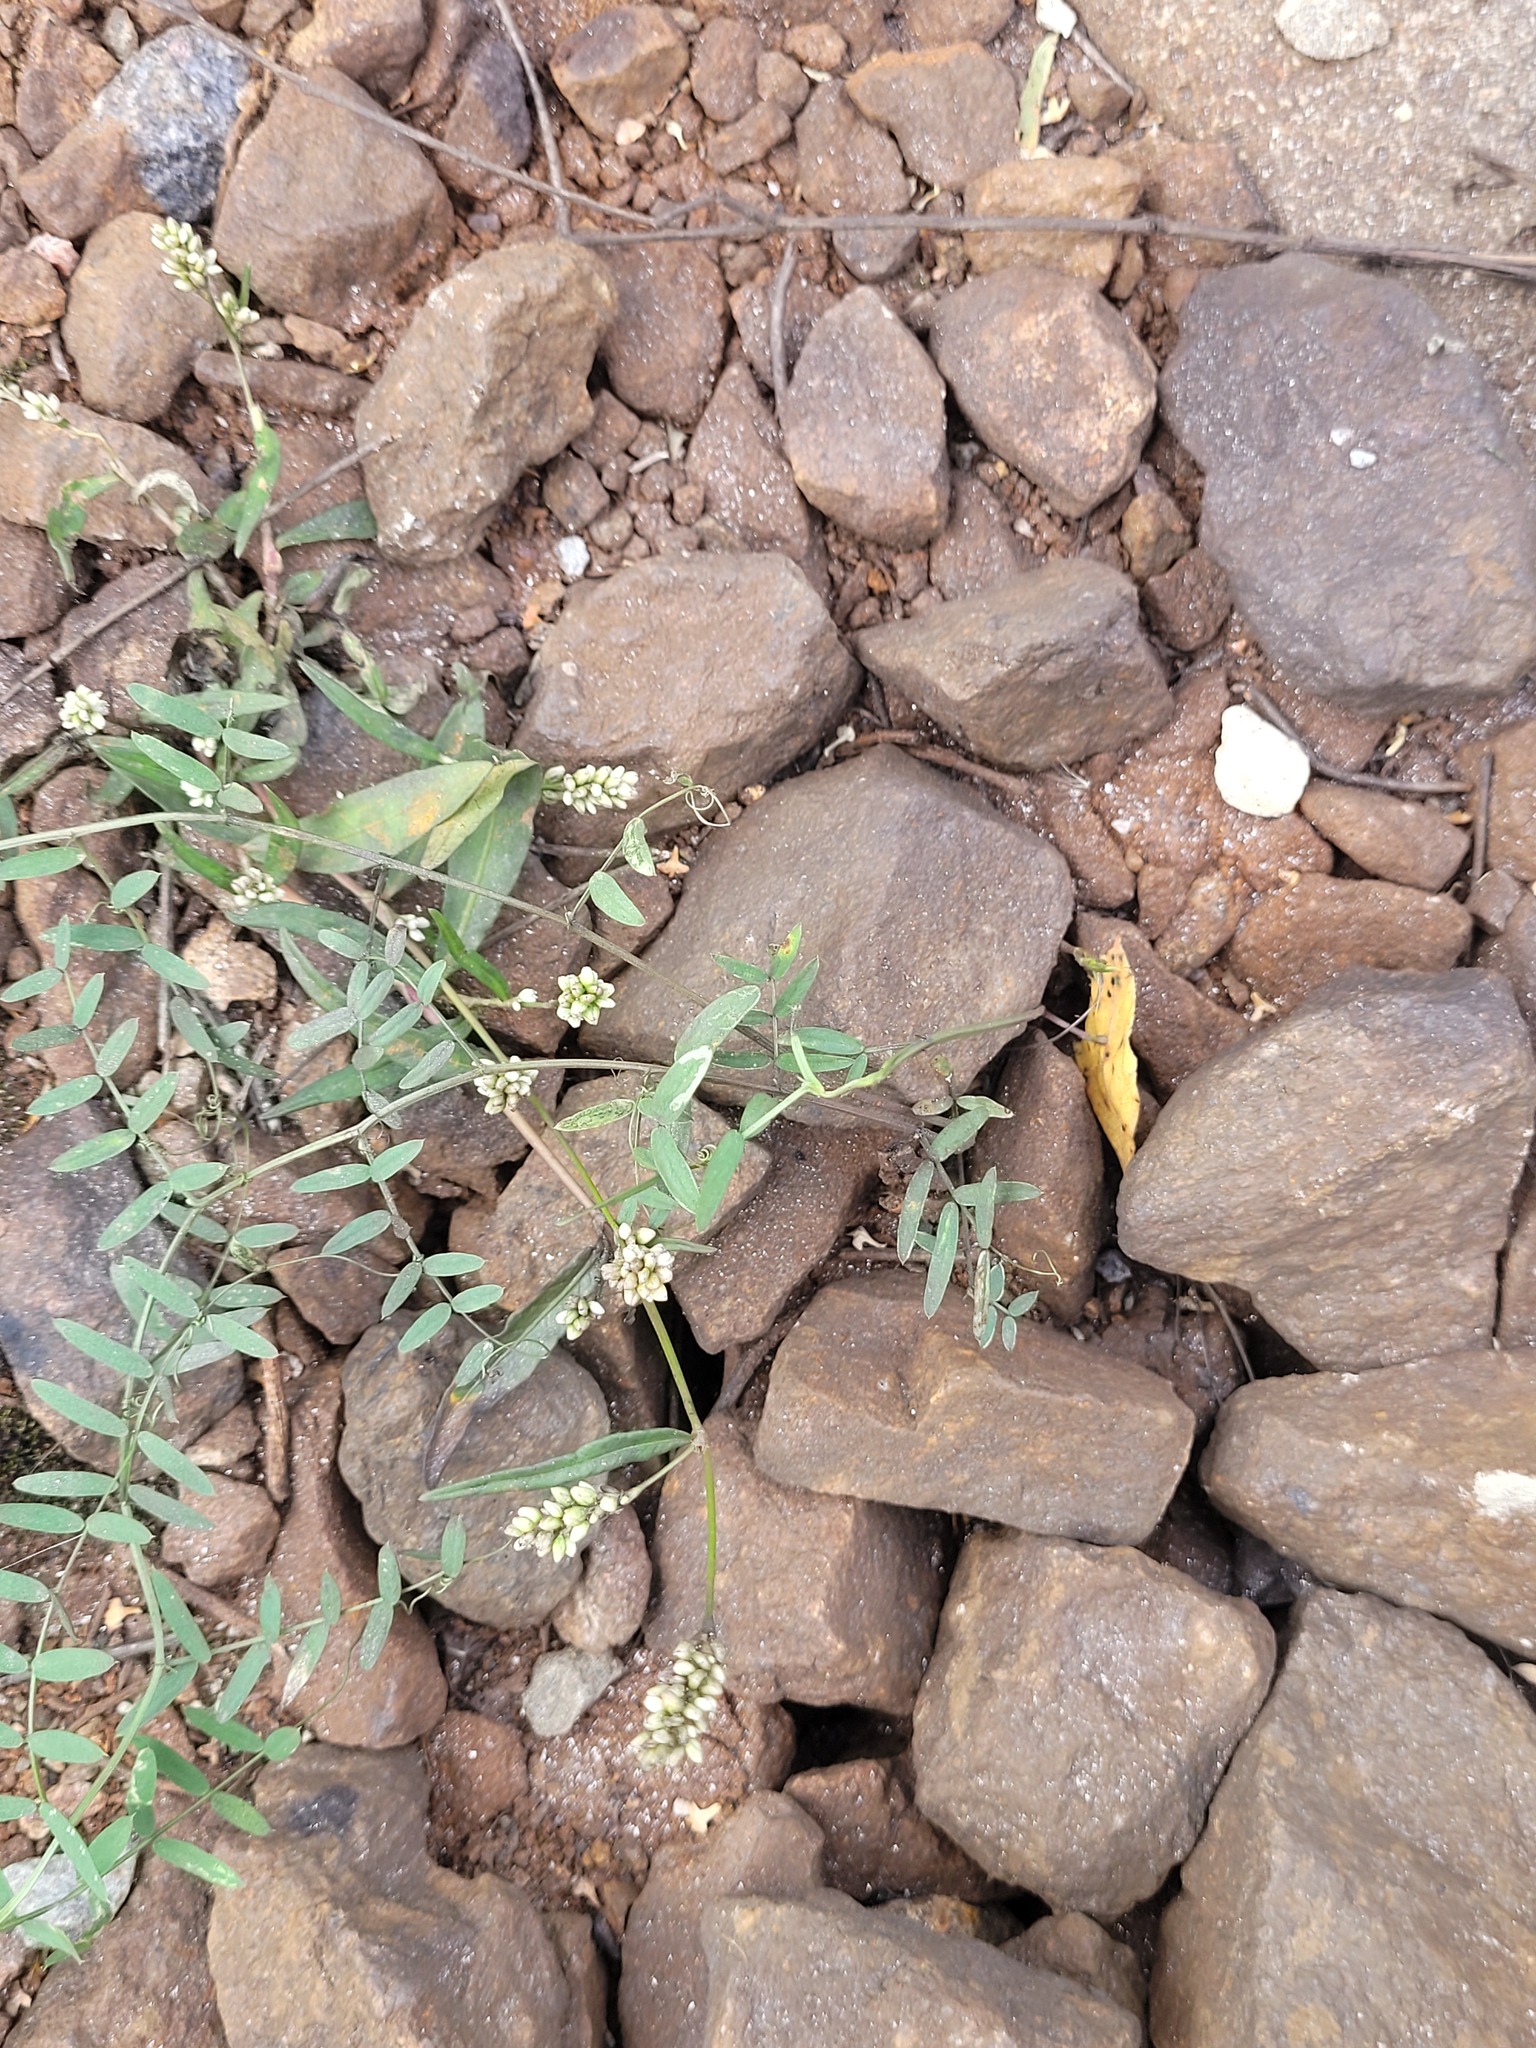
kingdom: Plantae
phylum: Tracheophyta
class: Magnoliopsida
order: Caryophyllales
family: Polygonaceae
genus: Persicaria
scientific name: Persicaria maculosa
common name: Redshank
